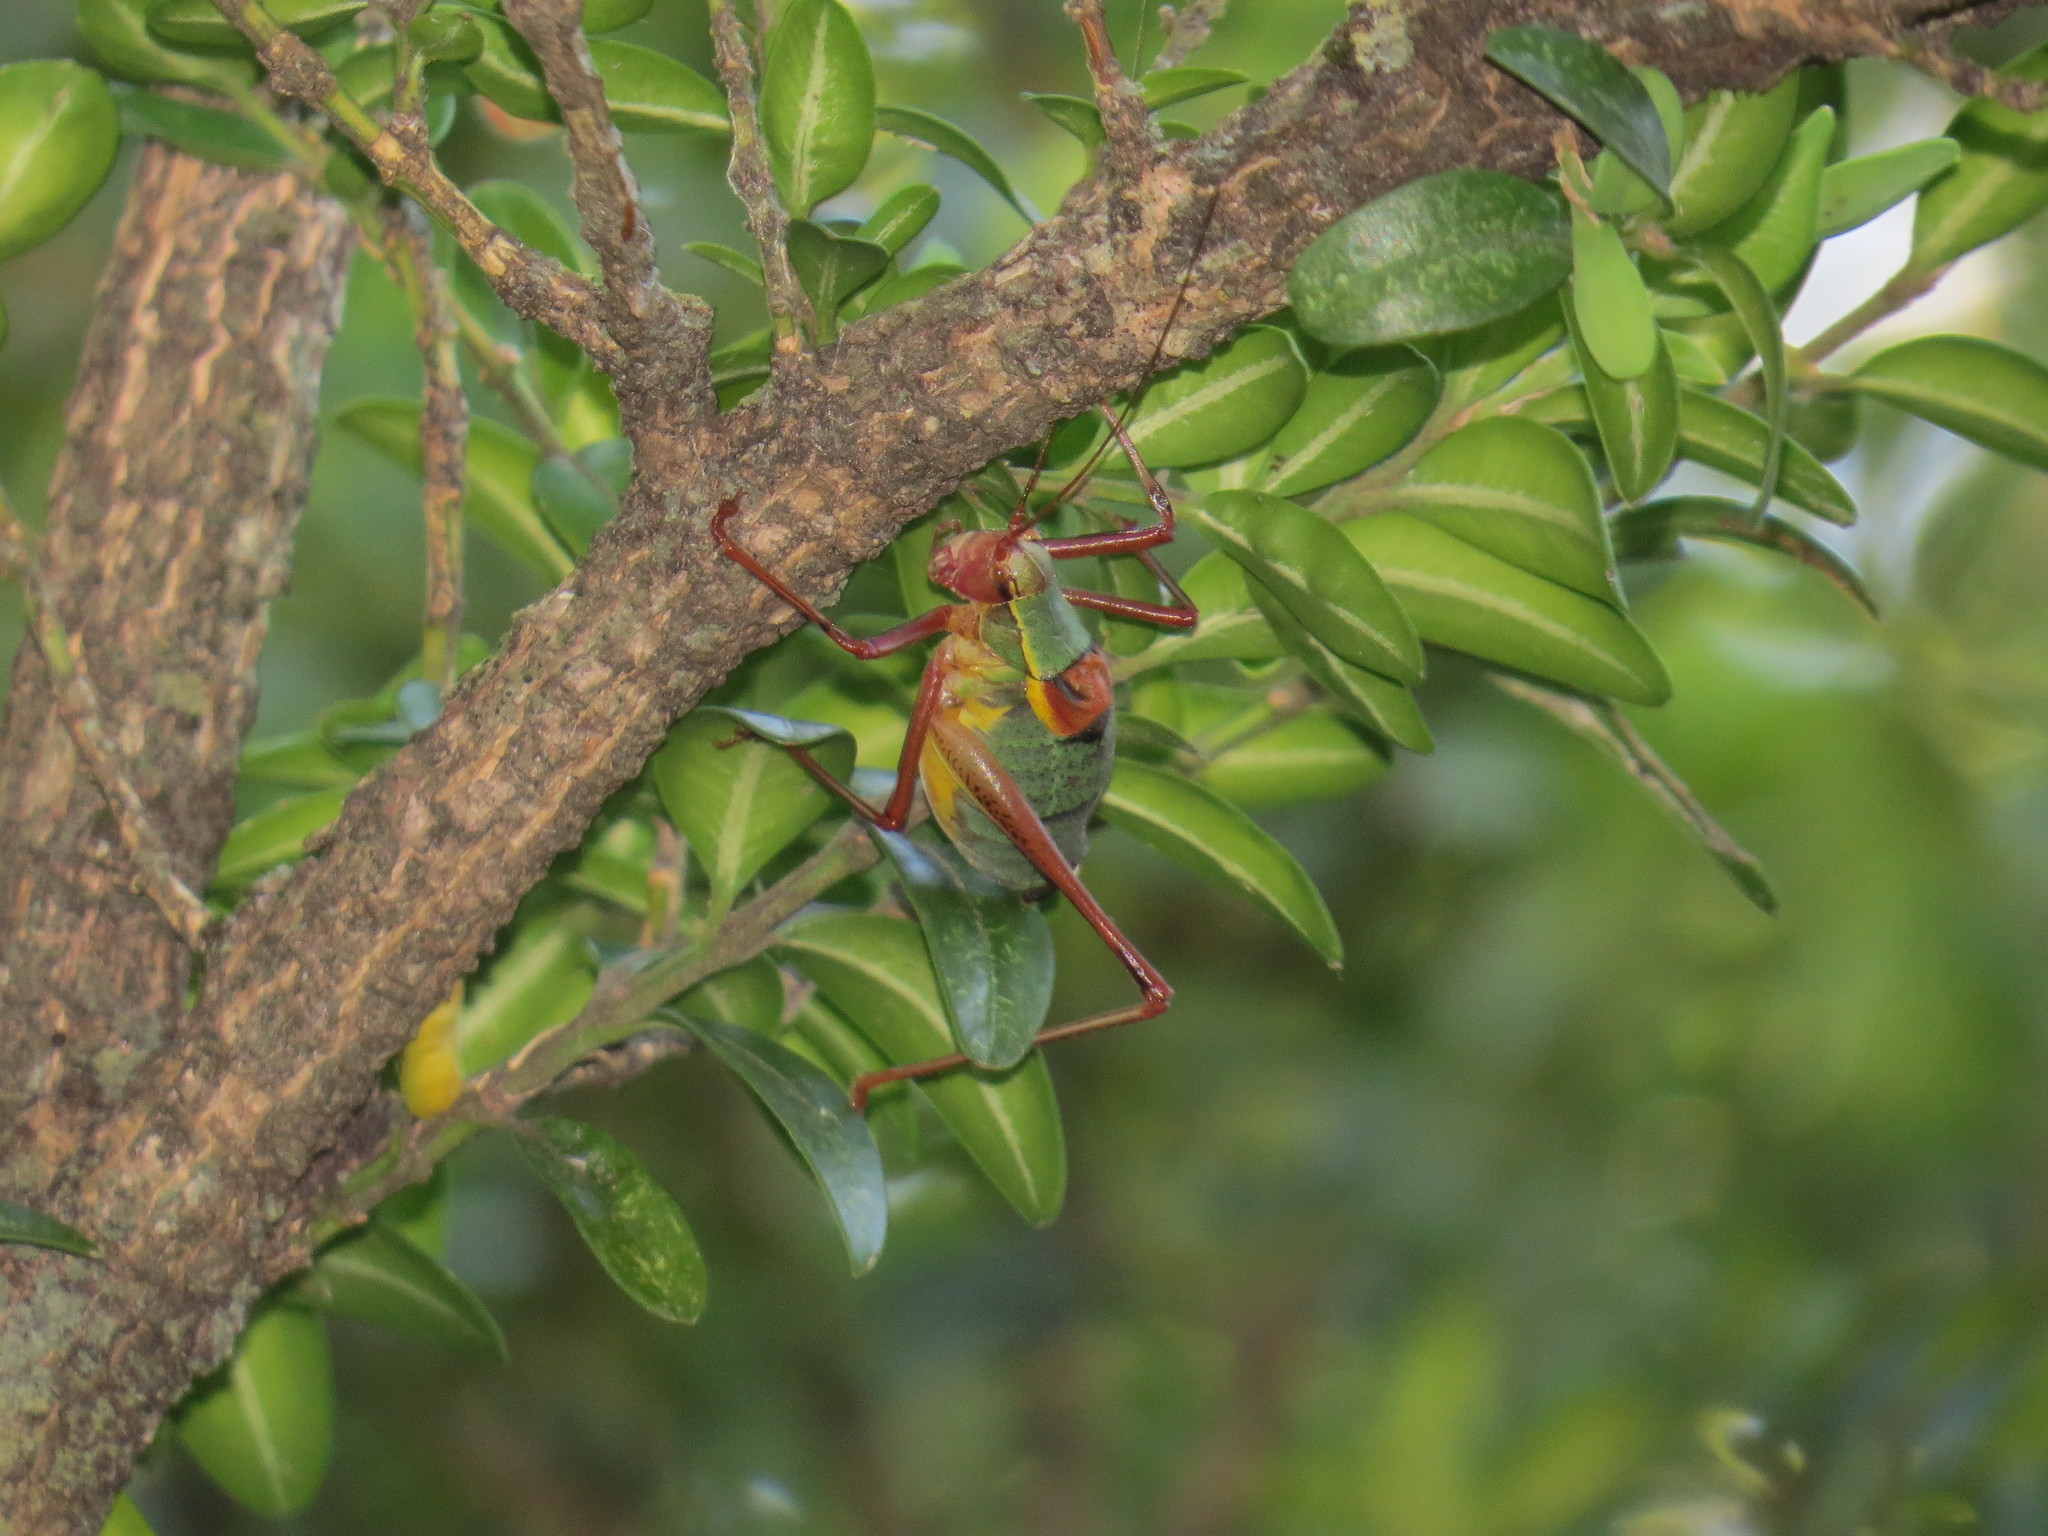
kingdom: Animalia
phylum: Arthropoda
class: Insecta
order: Orthoptera
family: Tettigoniidae
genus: Barbitistes
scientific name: Barbitistes obtusus
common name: Alpine saw bush-cricket
